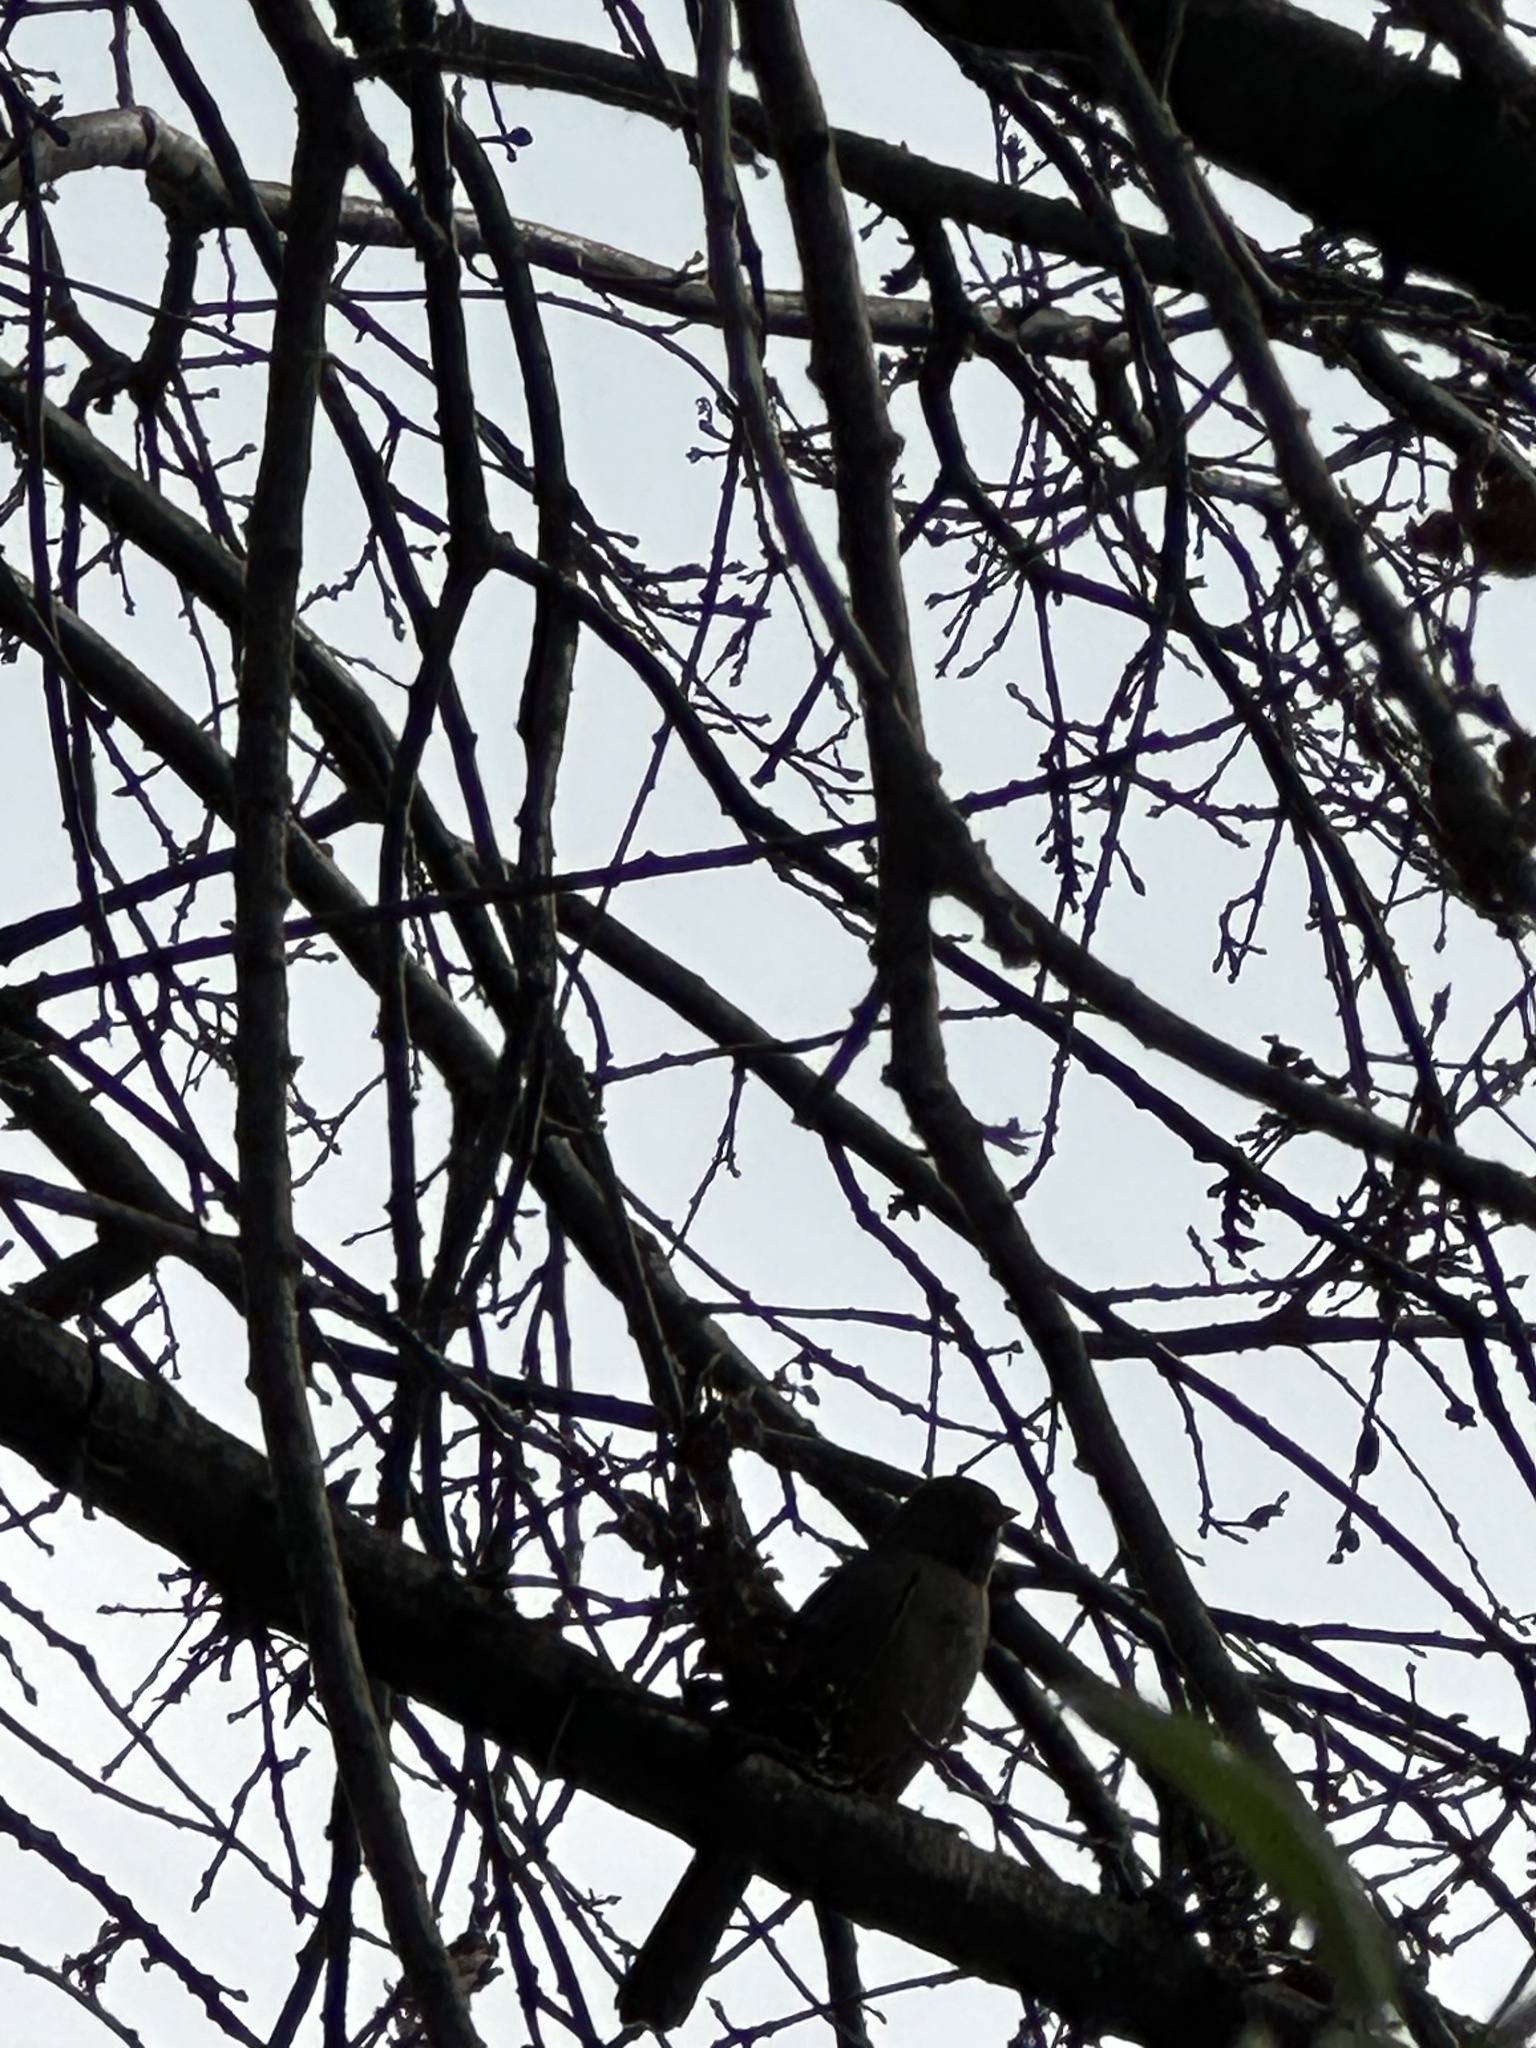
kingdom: Animalia
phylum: Chordata
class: Aves
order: Passeriformes
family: Passerellidae
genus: Junco
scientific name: Junco hyemalis
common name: Dark-eyed junco
